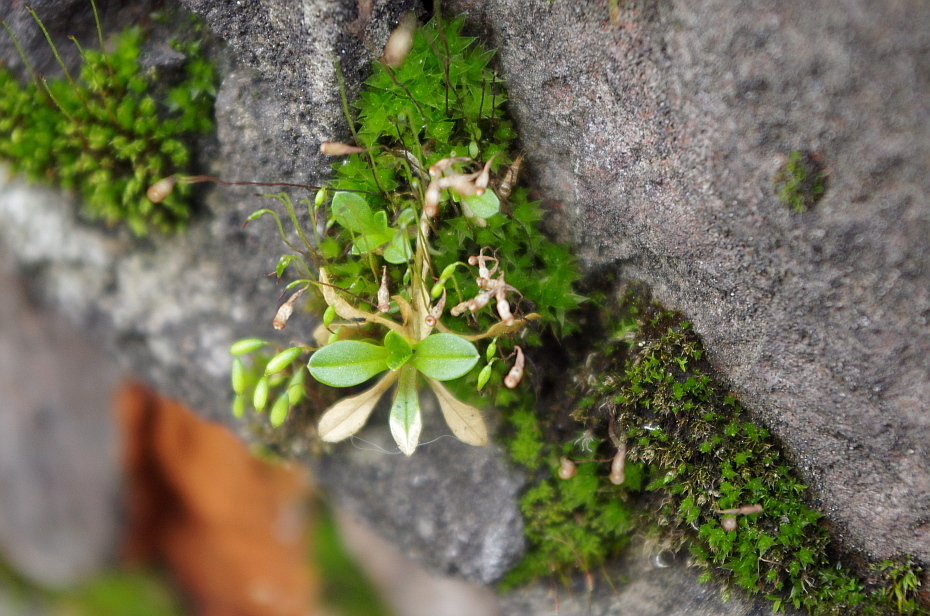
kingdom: Plantae
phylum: Tracheophyta
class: Magnoliopsida
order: Caryophyllales
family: Caryophyllaceae
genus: Cerastium
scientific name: Cerastium holosteoides
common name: Big chickweed
